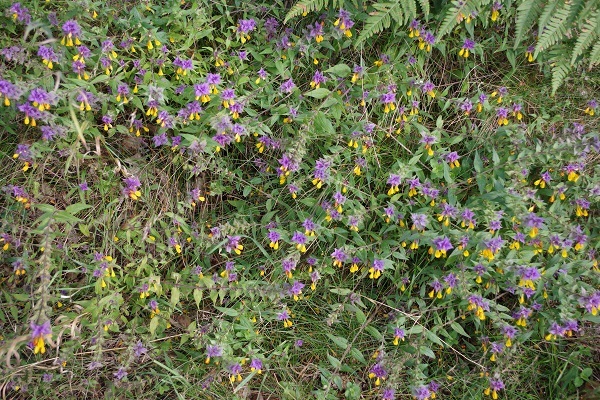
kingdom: Plantae
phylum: Tracheophyta
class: Magnoliopsida
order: Lamiales
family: Orobanchaceae
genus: Melampyrum
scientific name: Melampyrum nemorosum
